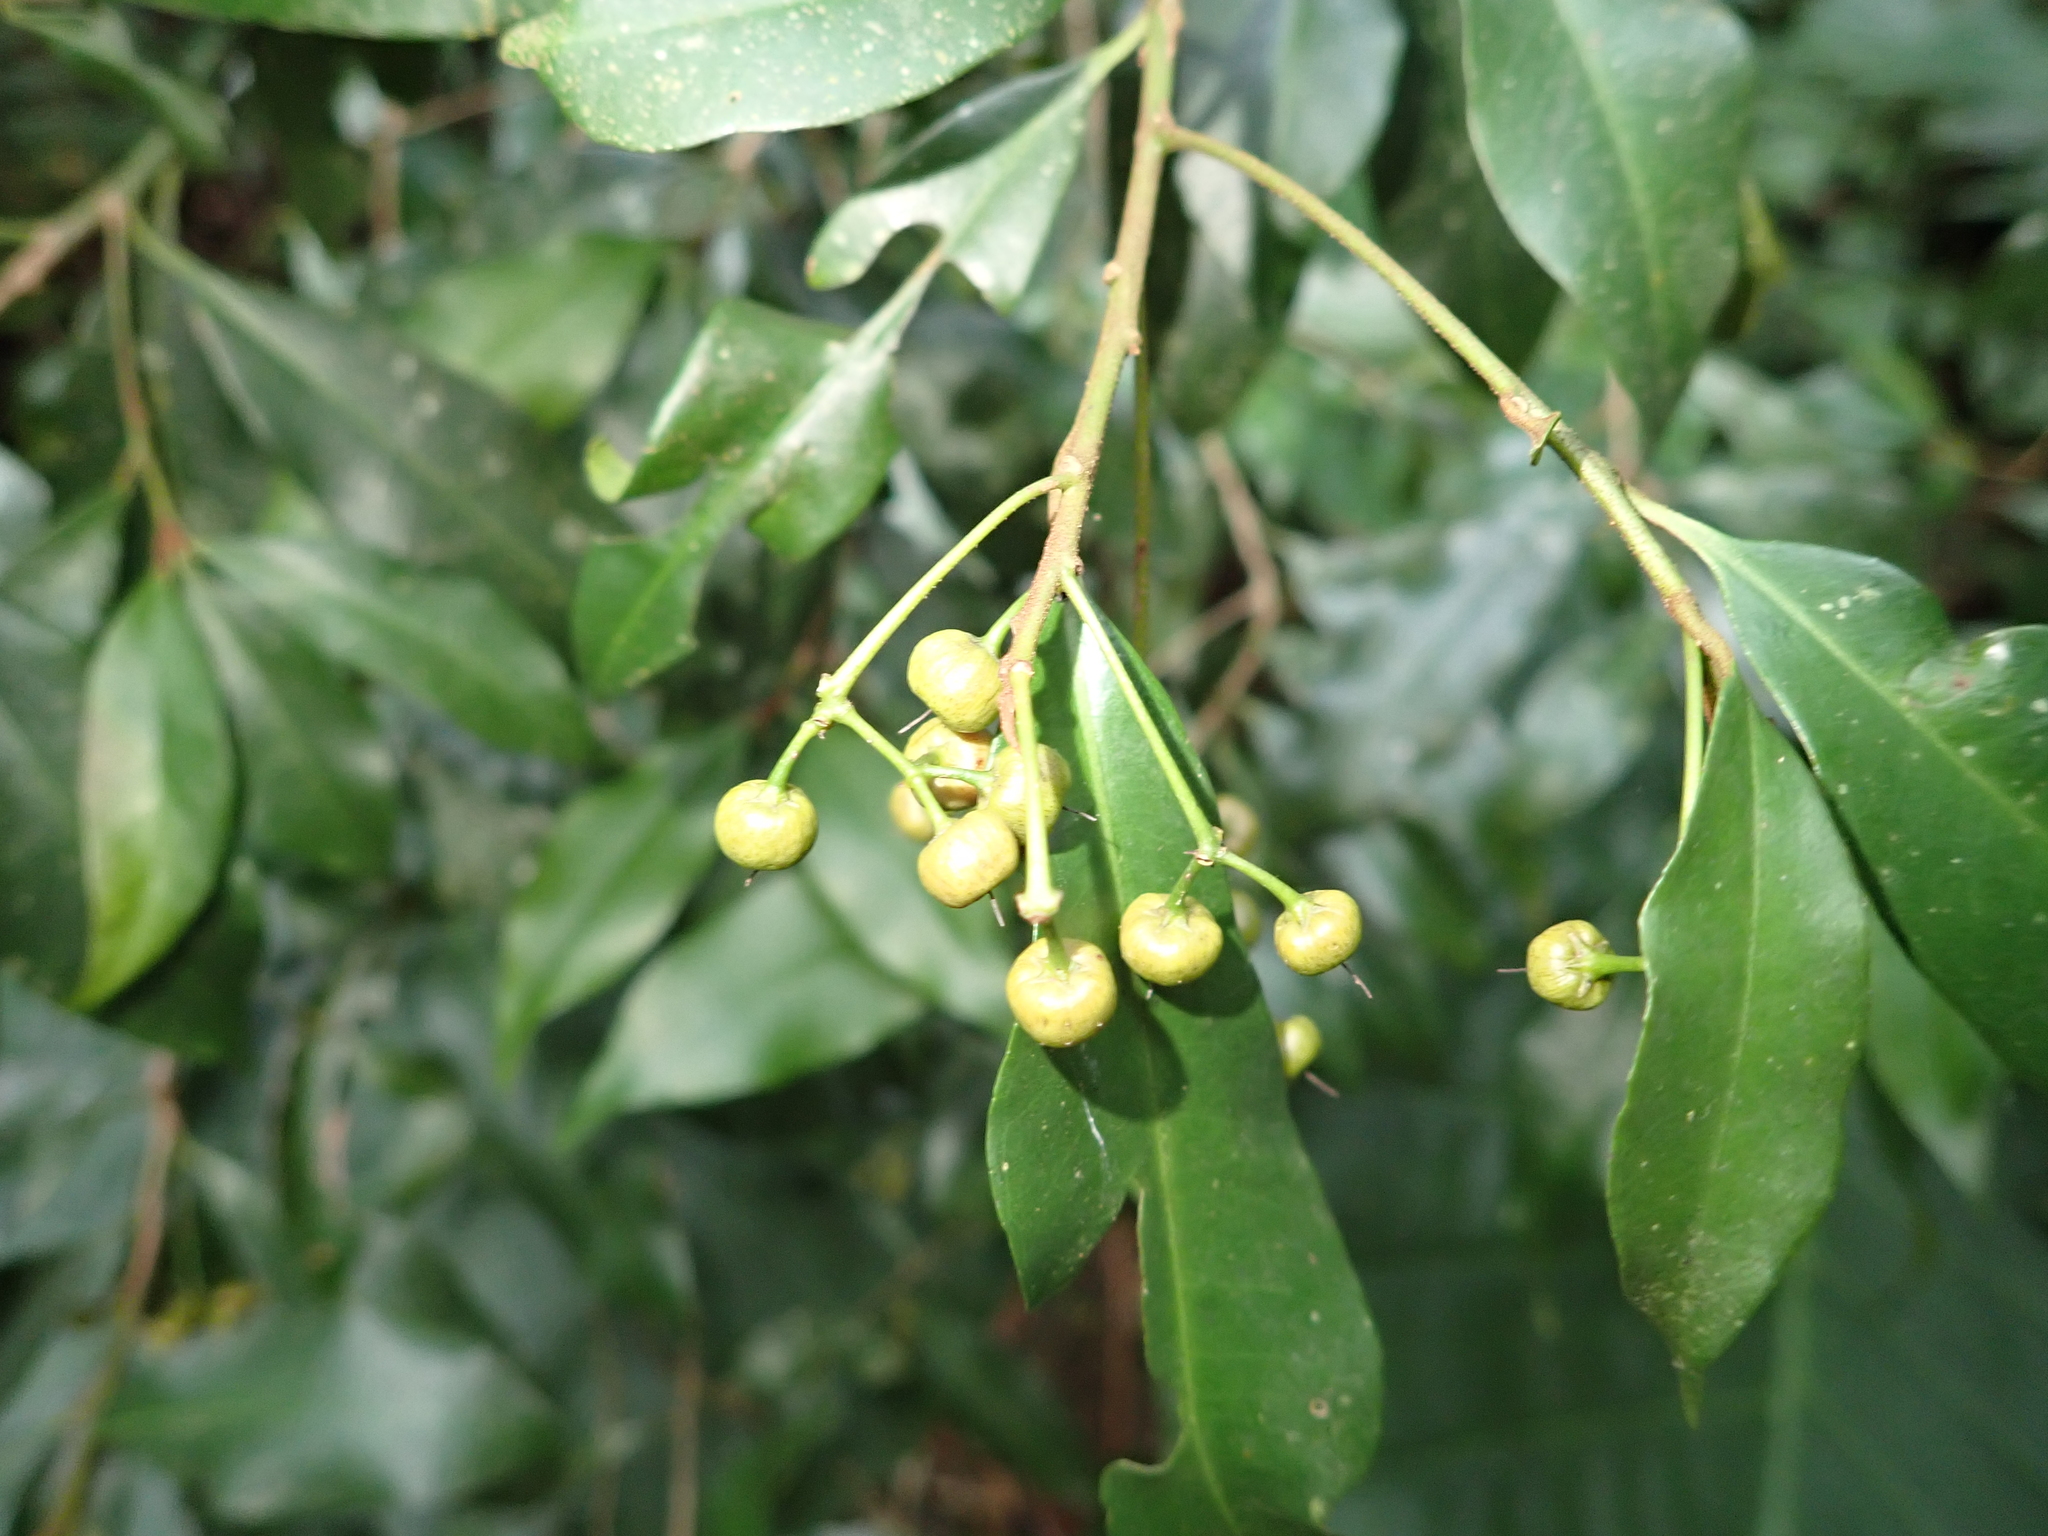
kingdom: Plantae
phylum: Tracheophyta
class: Magnoliopsida
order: Ericales
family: Primulaceae
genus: Ardisia
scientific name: Ardisia quinquegona
